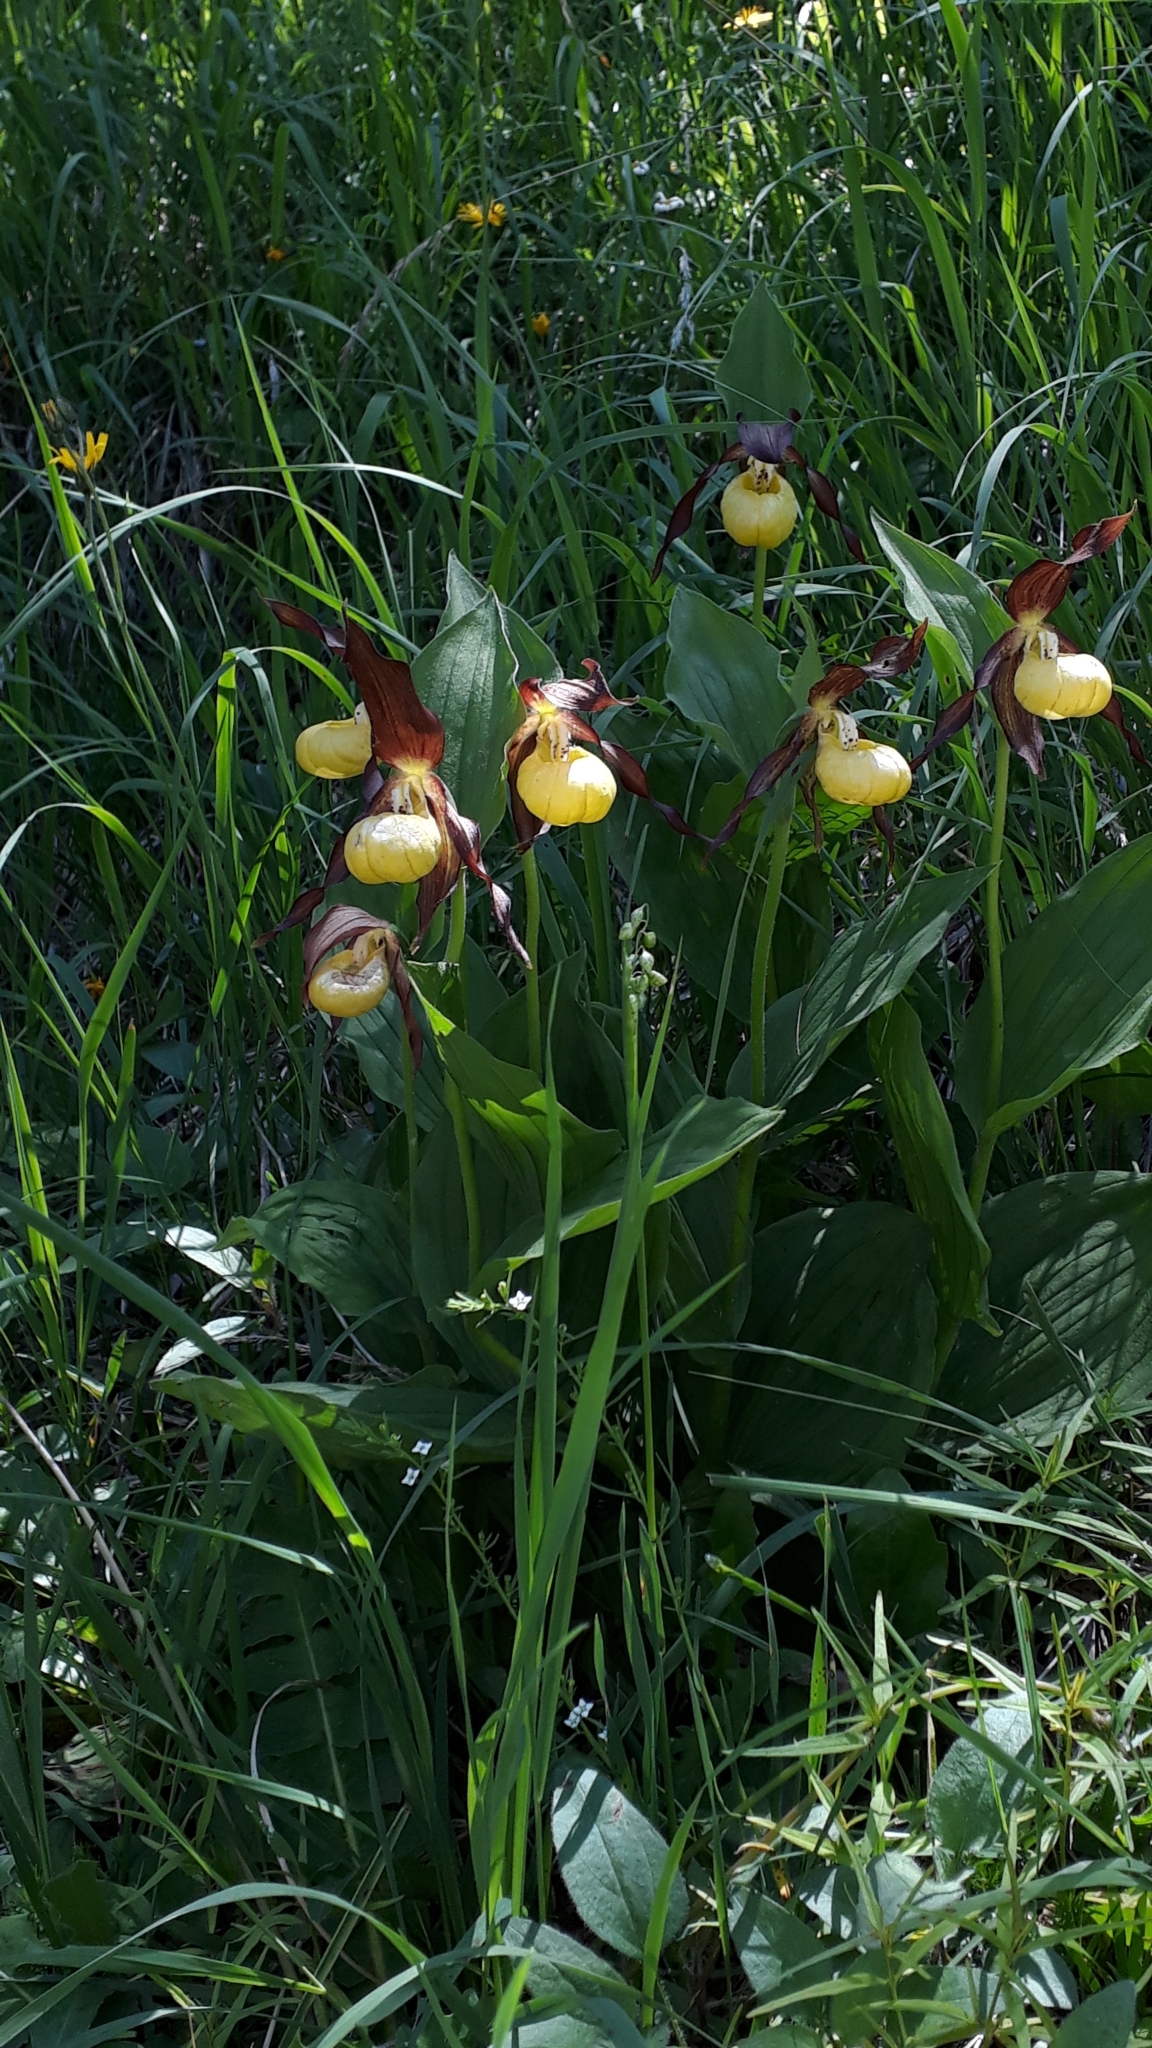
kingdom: Plantae
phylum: Tracheophyta
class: Liliopsida
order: Asparagales
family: Orchidaceae
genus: Cypripedium
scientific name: Cypripedium calceolus
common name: Lady's-slipper
